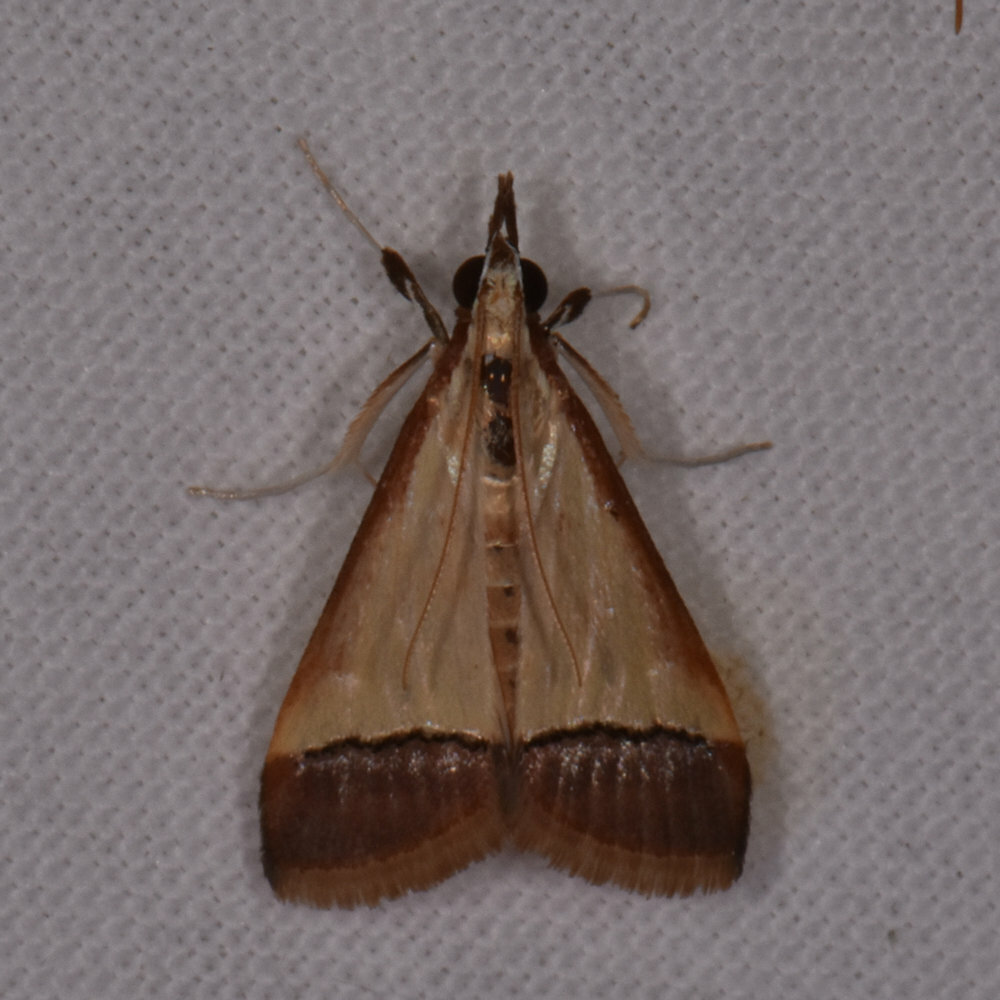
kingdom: Animalia
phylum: Arthropoda
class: Insecta
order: Lepidoptera
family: Crambidae
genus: Autocharis
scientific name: Autocharis rubricostalis
